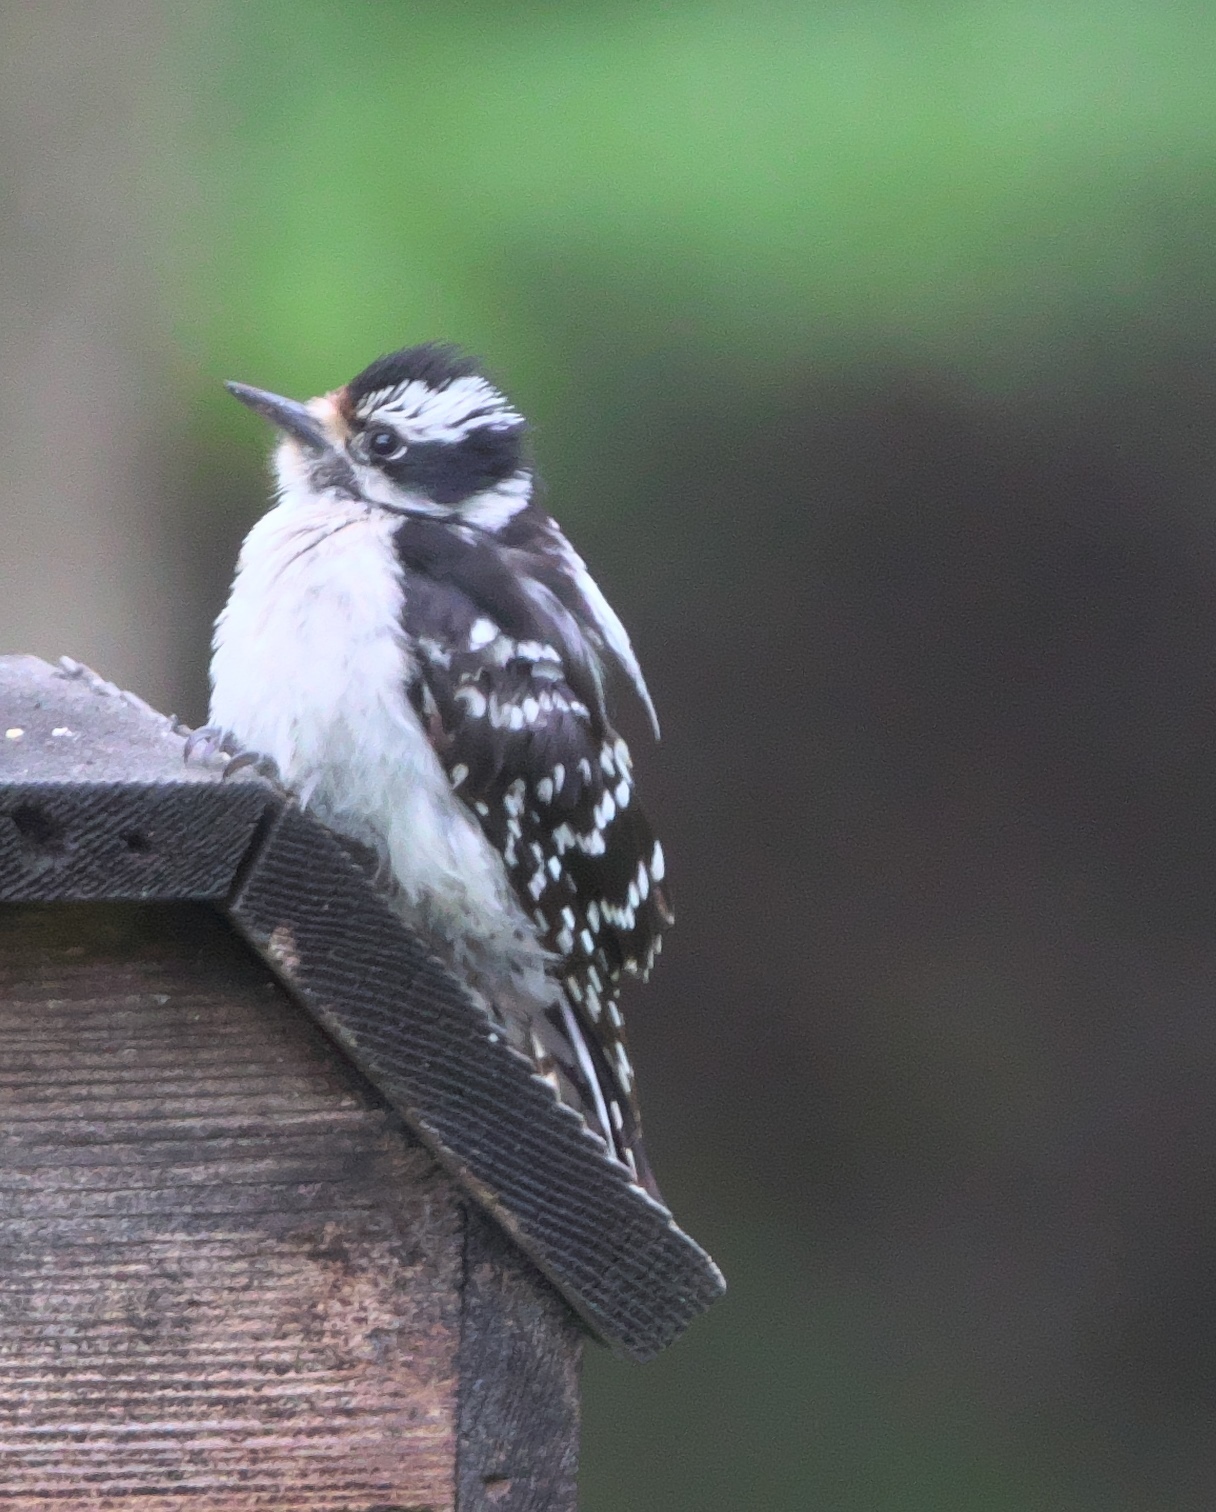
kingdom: Animalia
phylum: Chordata
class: Aves
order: Piciformes
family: Picidae
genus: Dryobates
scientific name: Dryobates pubescens
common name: Downy woodpecker
